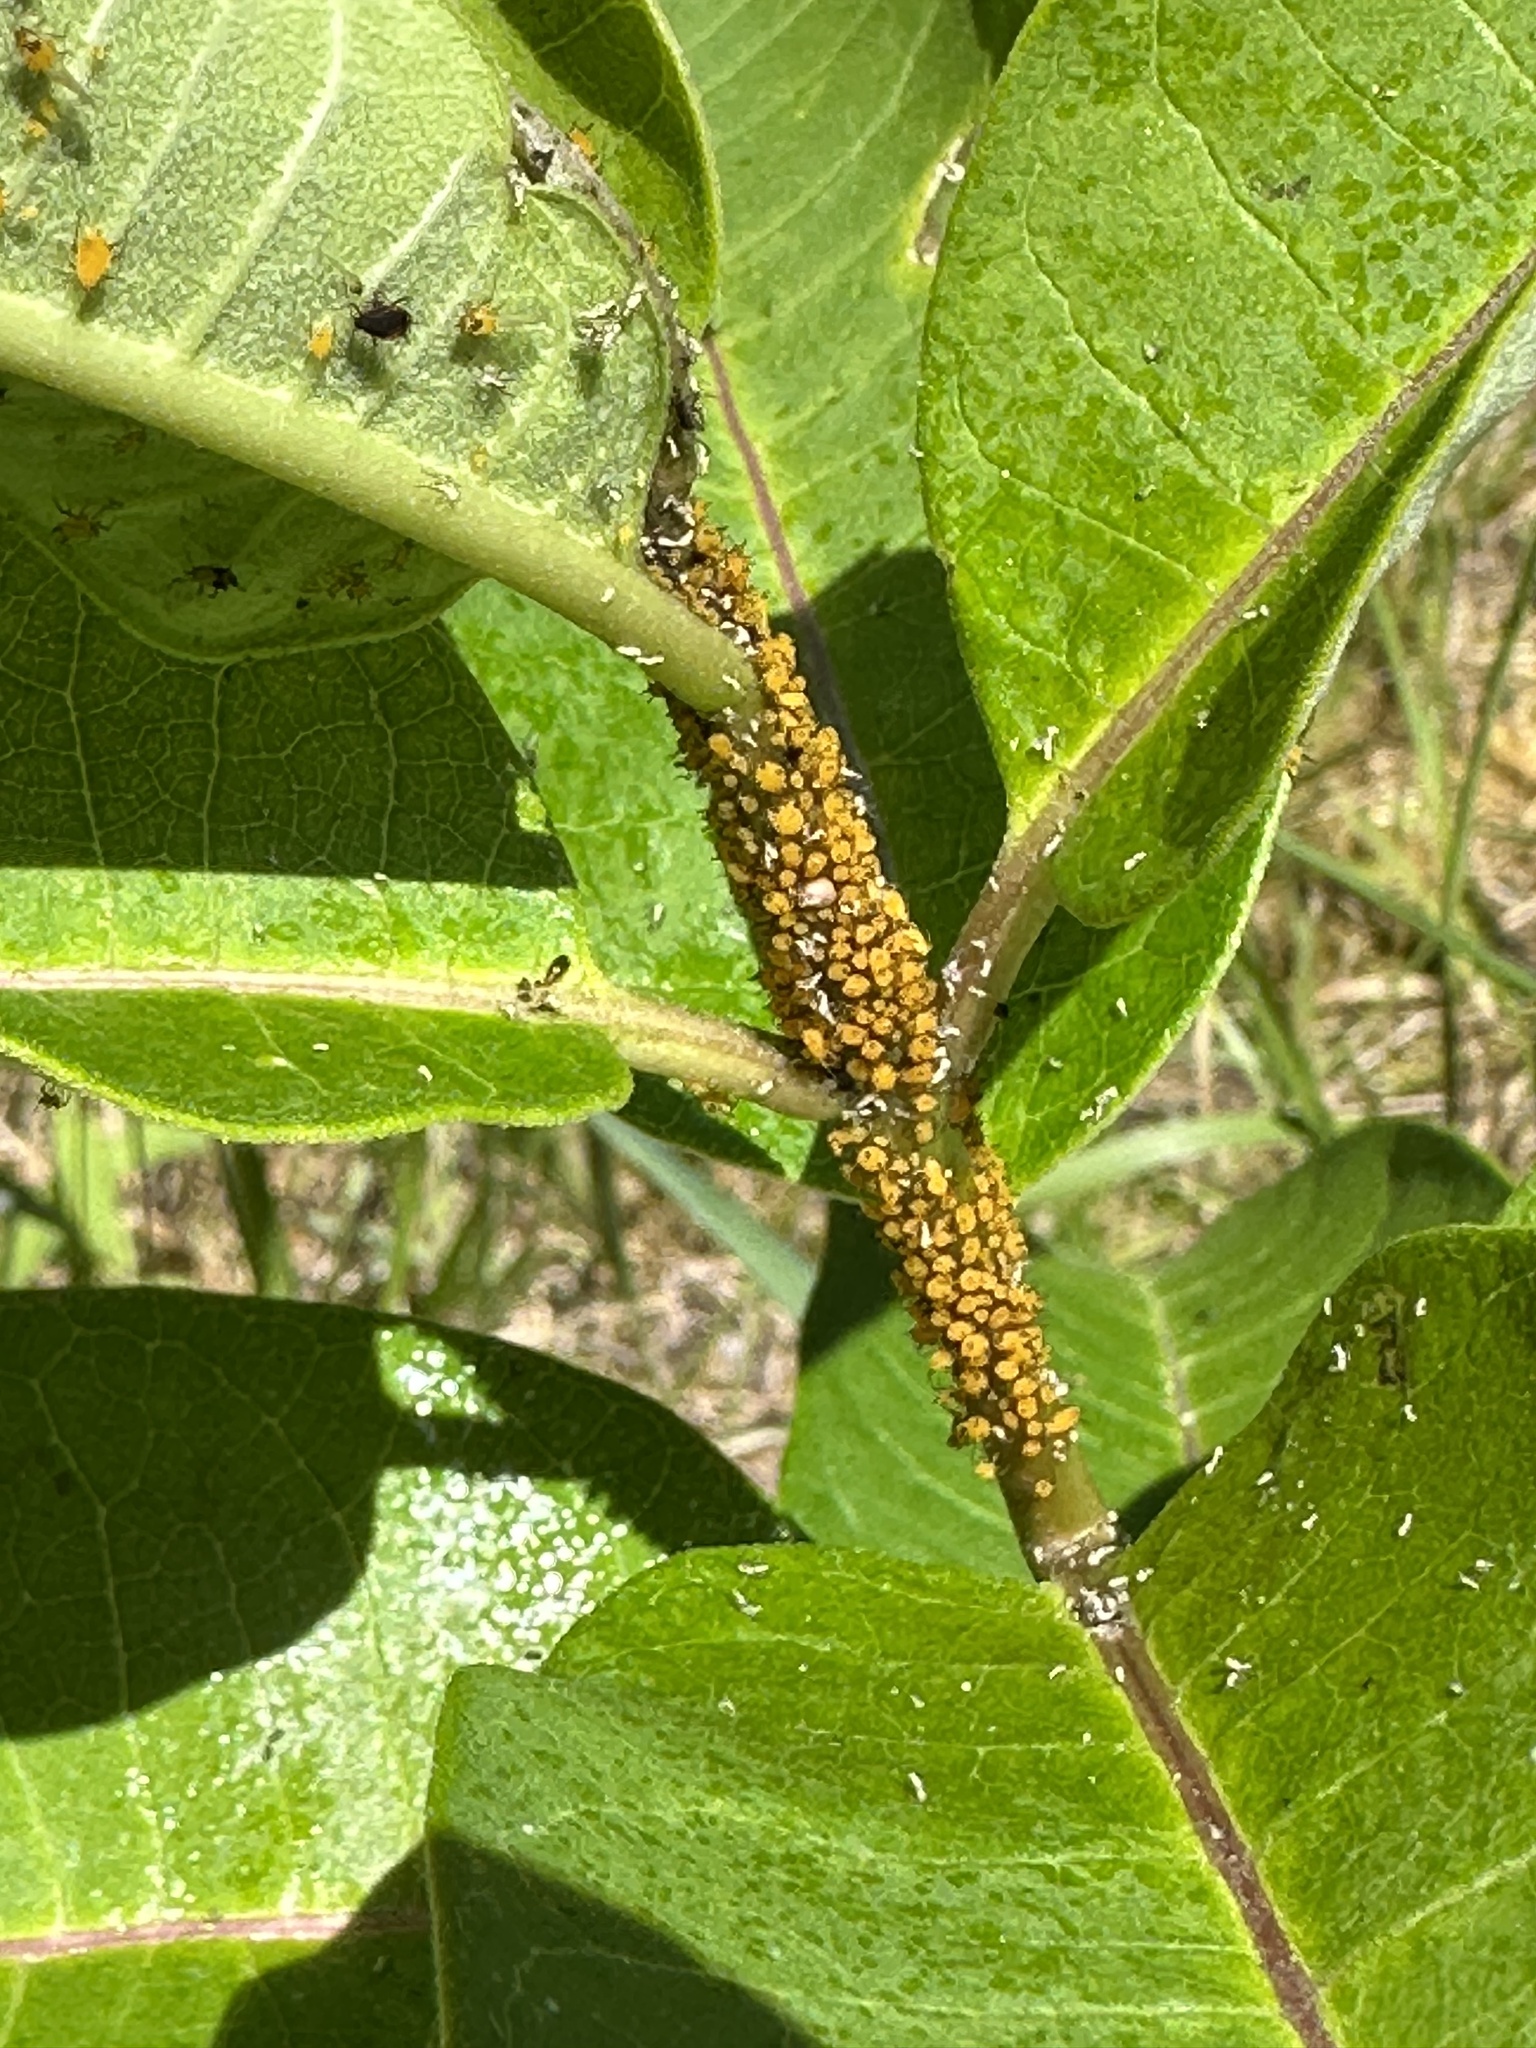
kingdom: Animalia
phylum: Arthropoda
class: Insecta
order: Hemiptera
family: Aphididae
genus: Aphis
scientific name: Aphis nerii
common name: Oleander aphid
